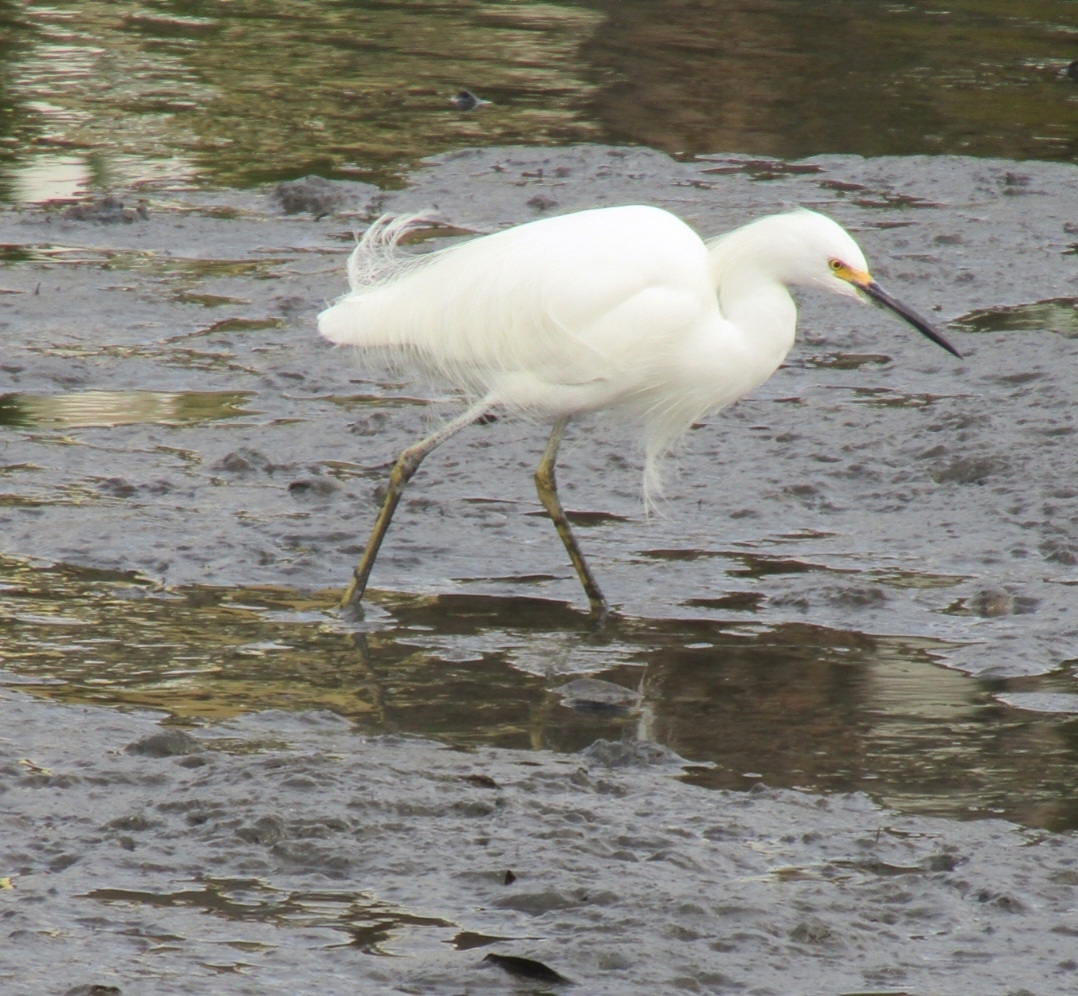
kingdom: Animalia
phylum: Chordata
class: Aves
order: Pelecaniformes
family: Ardeidae
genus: Egretta
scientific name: Egretta thula
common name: Snowy egret
